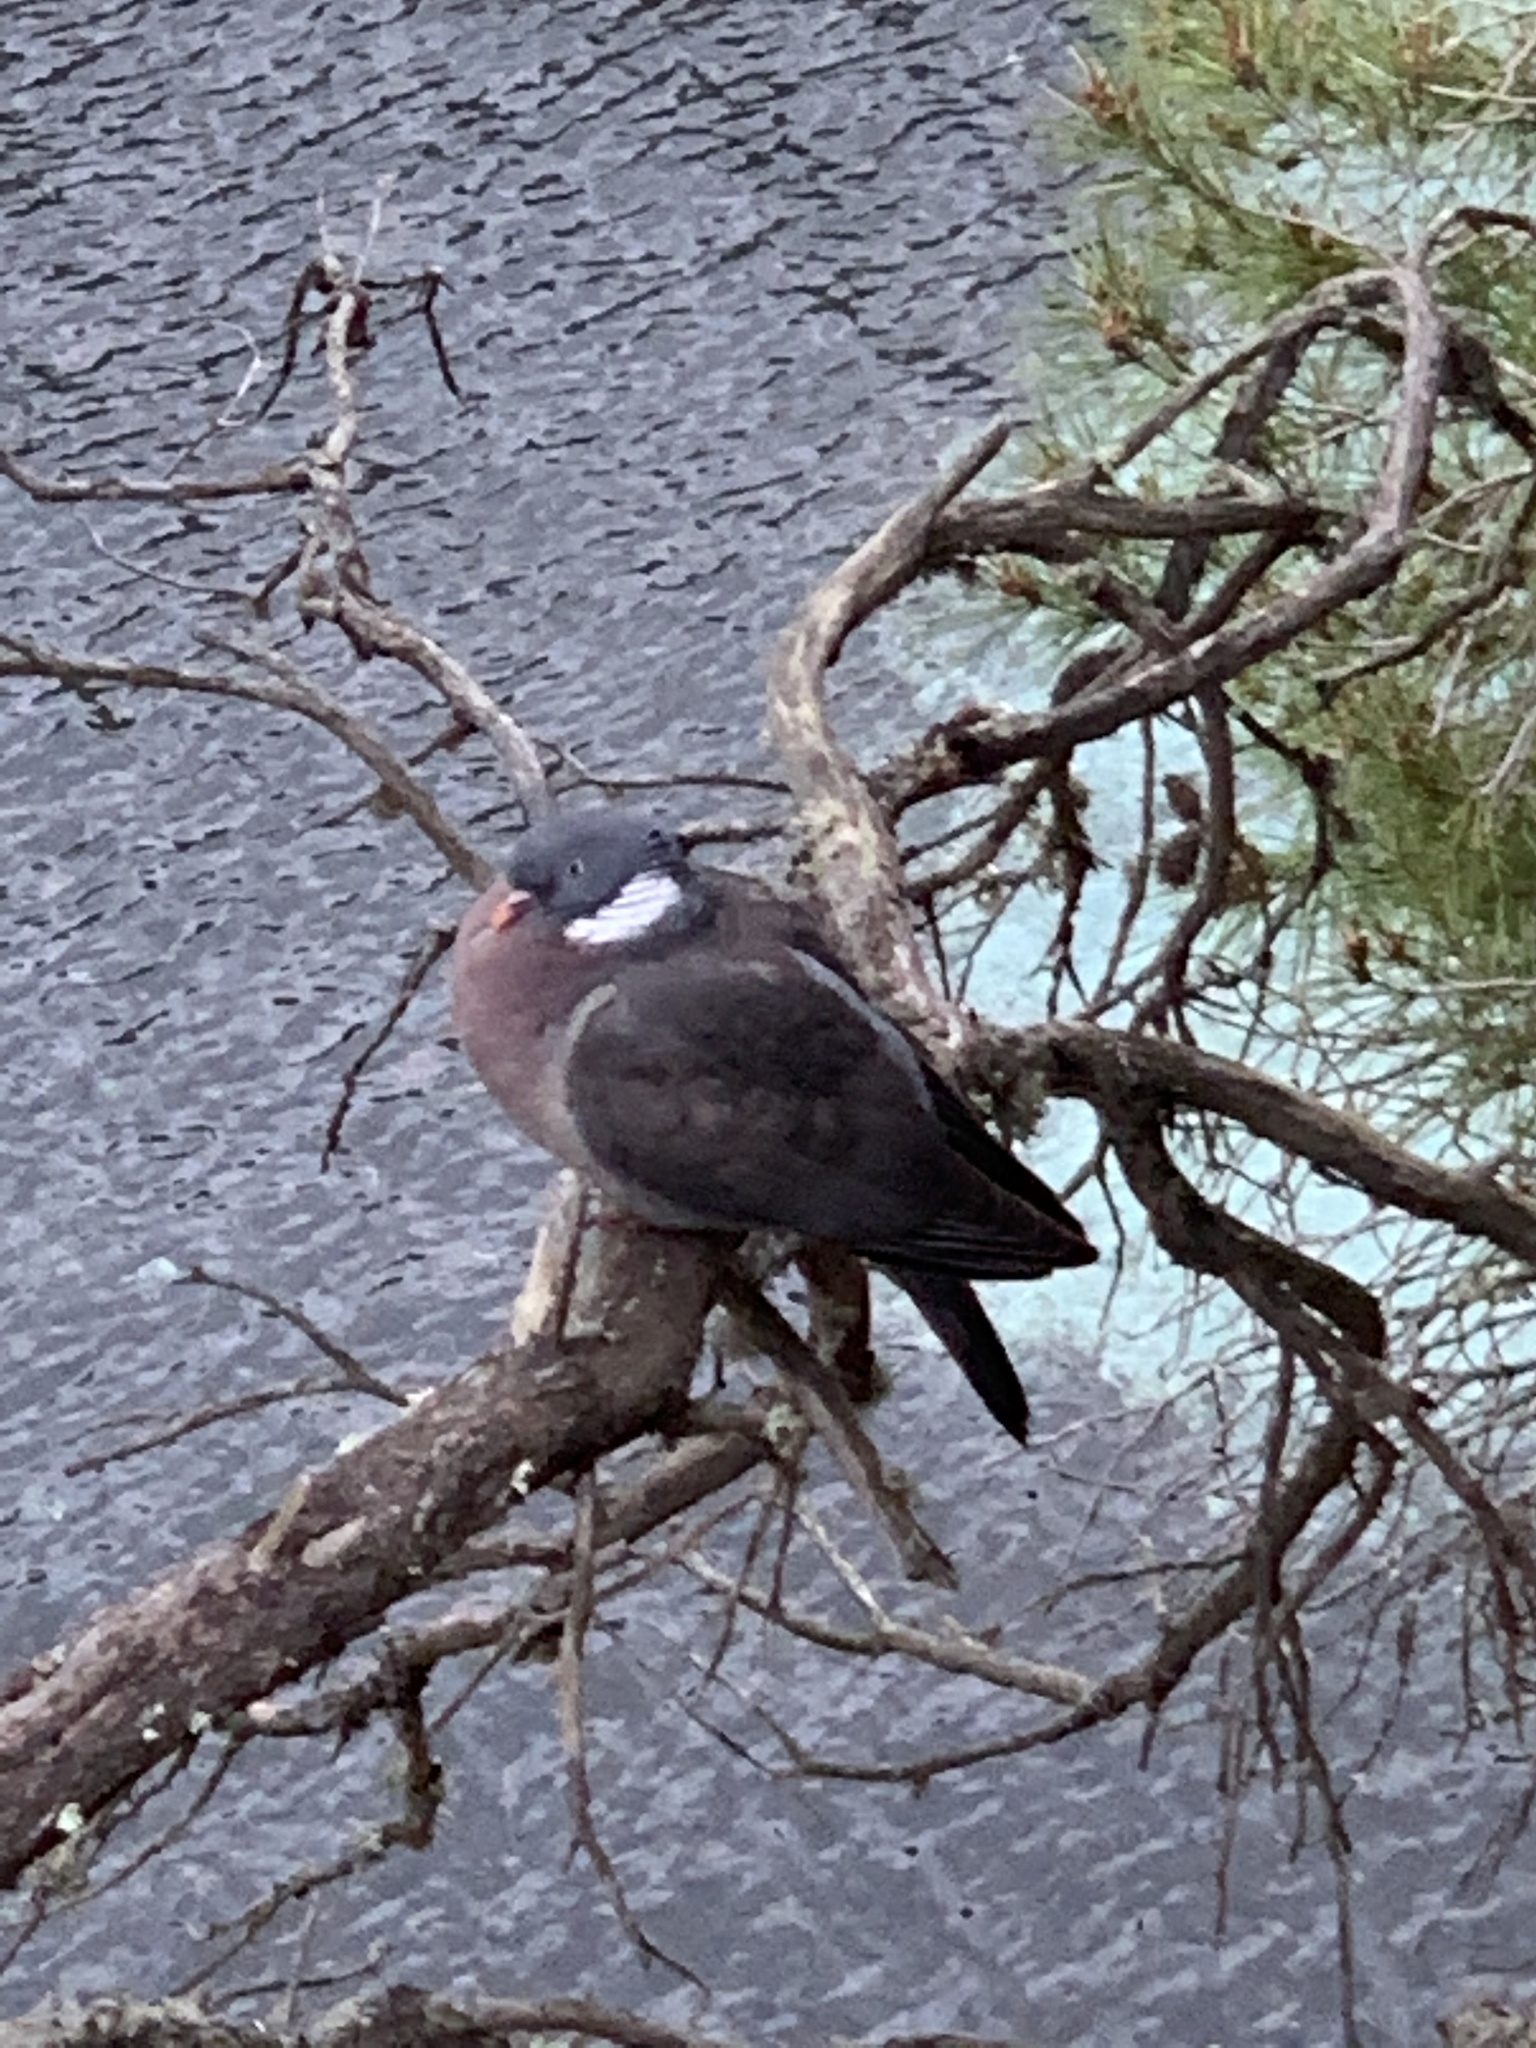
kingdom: Animalia
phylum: Chordata
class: Aves
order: Columbiformes
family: Columbidae
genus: Columba
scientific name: Columba palumbus
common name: Common wood pigeon
